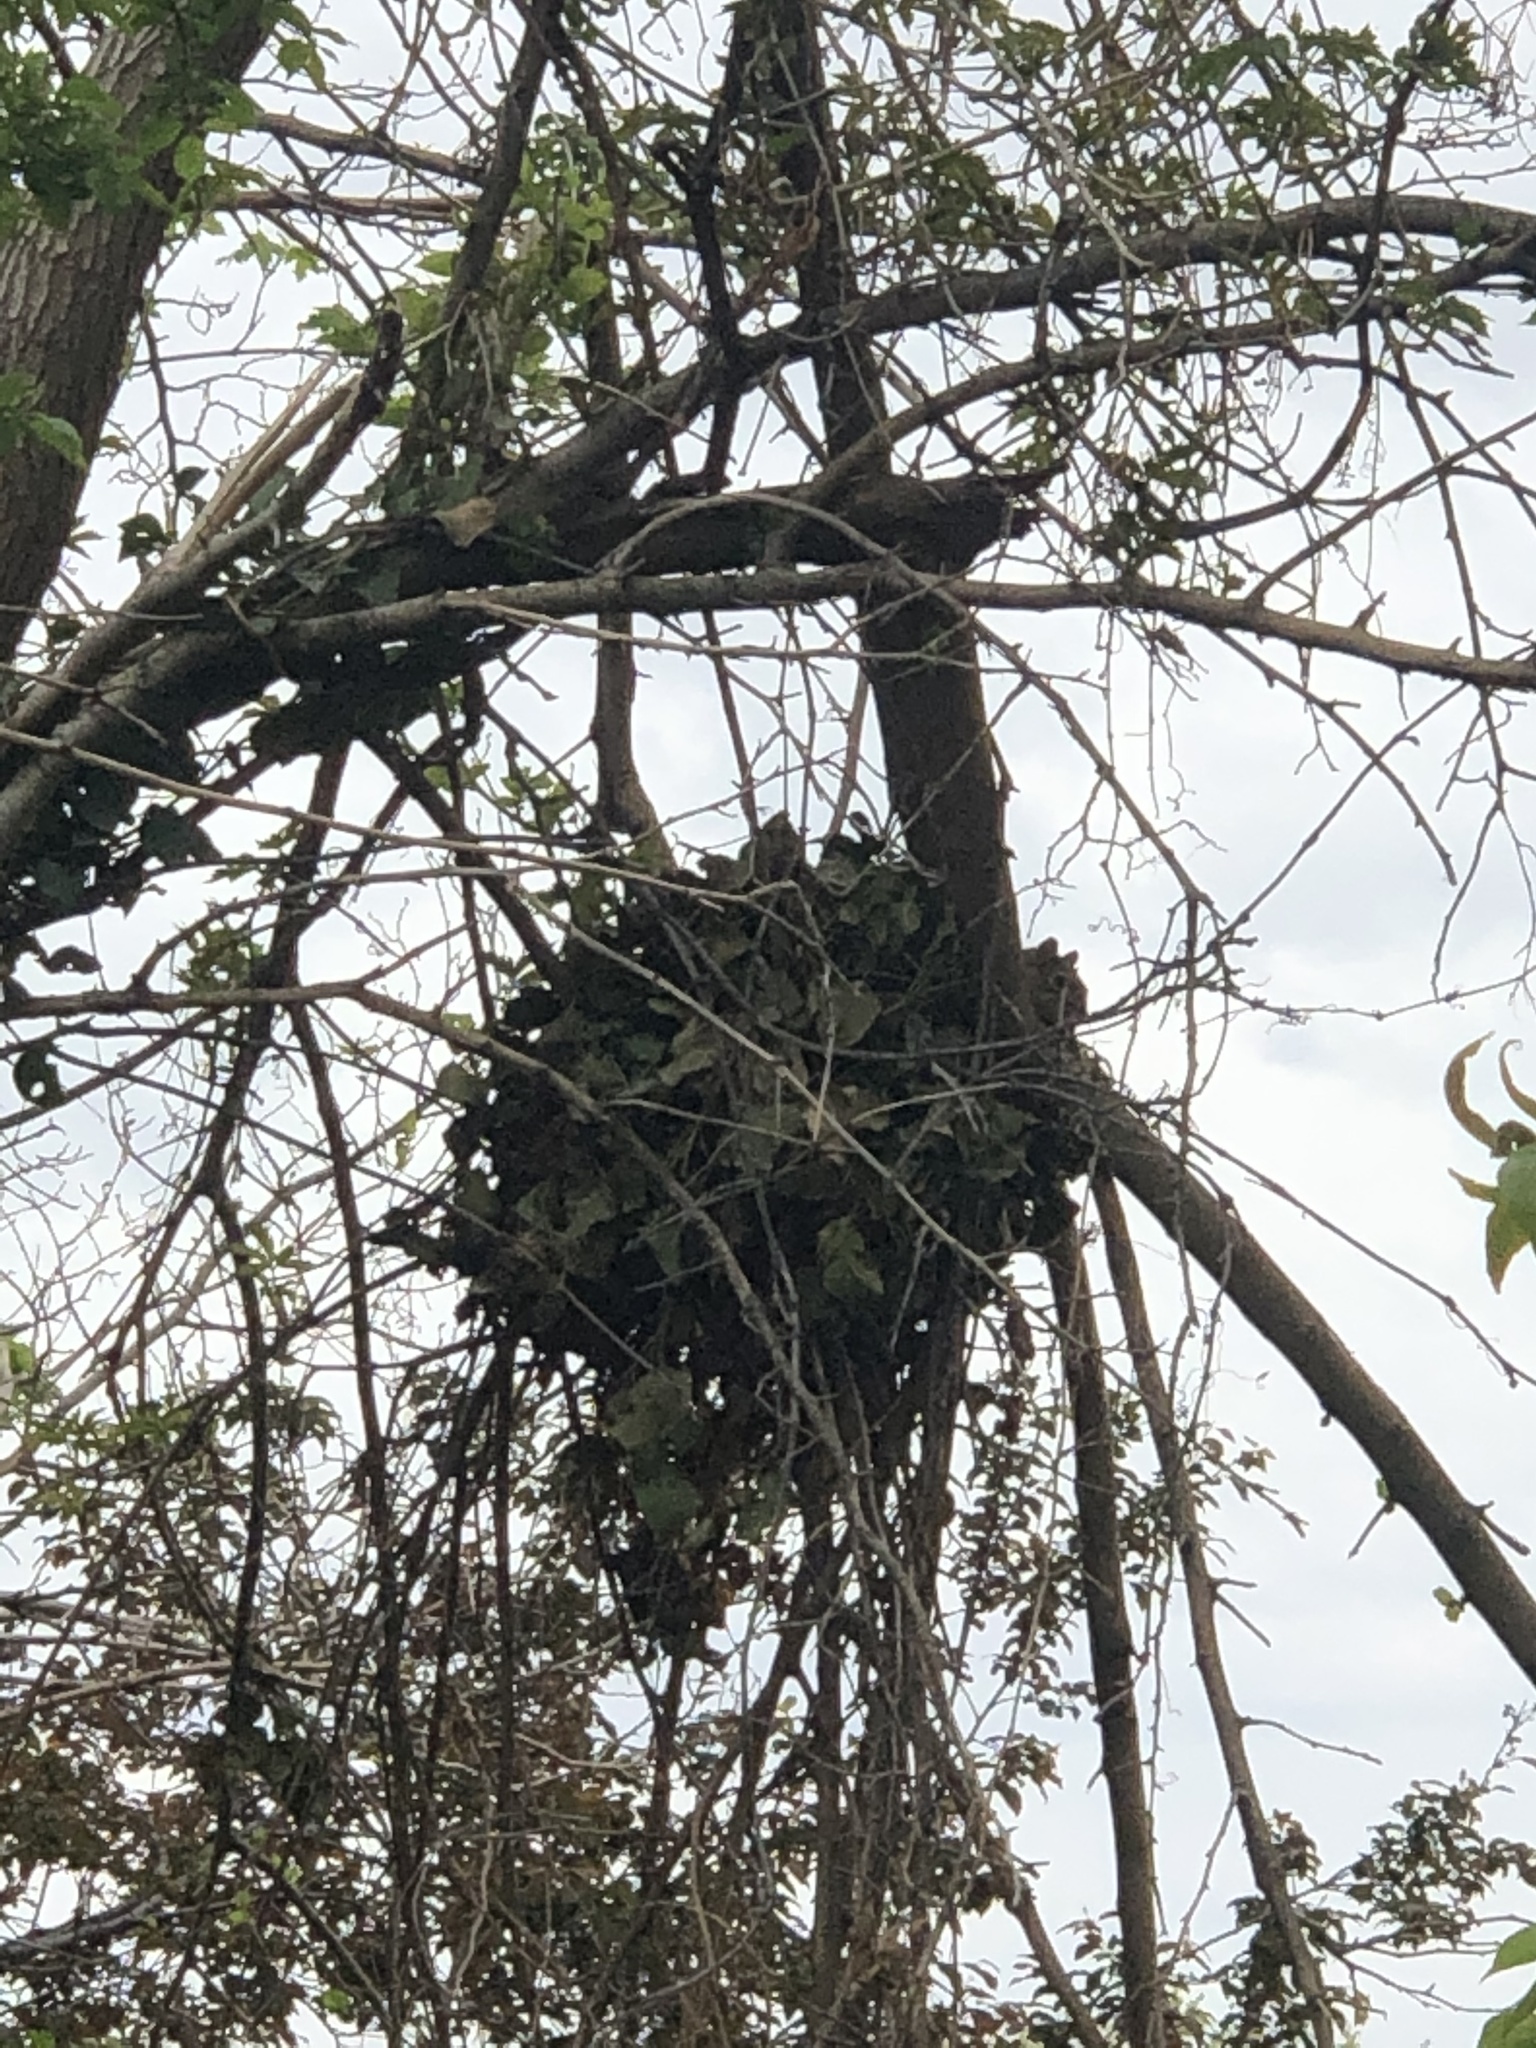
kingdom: Animalia
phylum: Chordata
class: Mammalia
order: Rodentia
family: Sciuridae
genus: Sciurus
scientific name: Sciurus niger
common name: Fox squirrel
